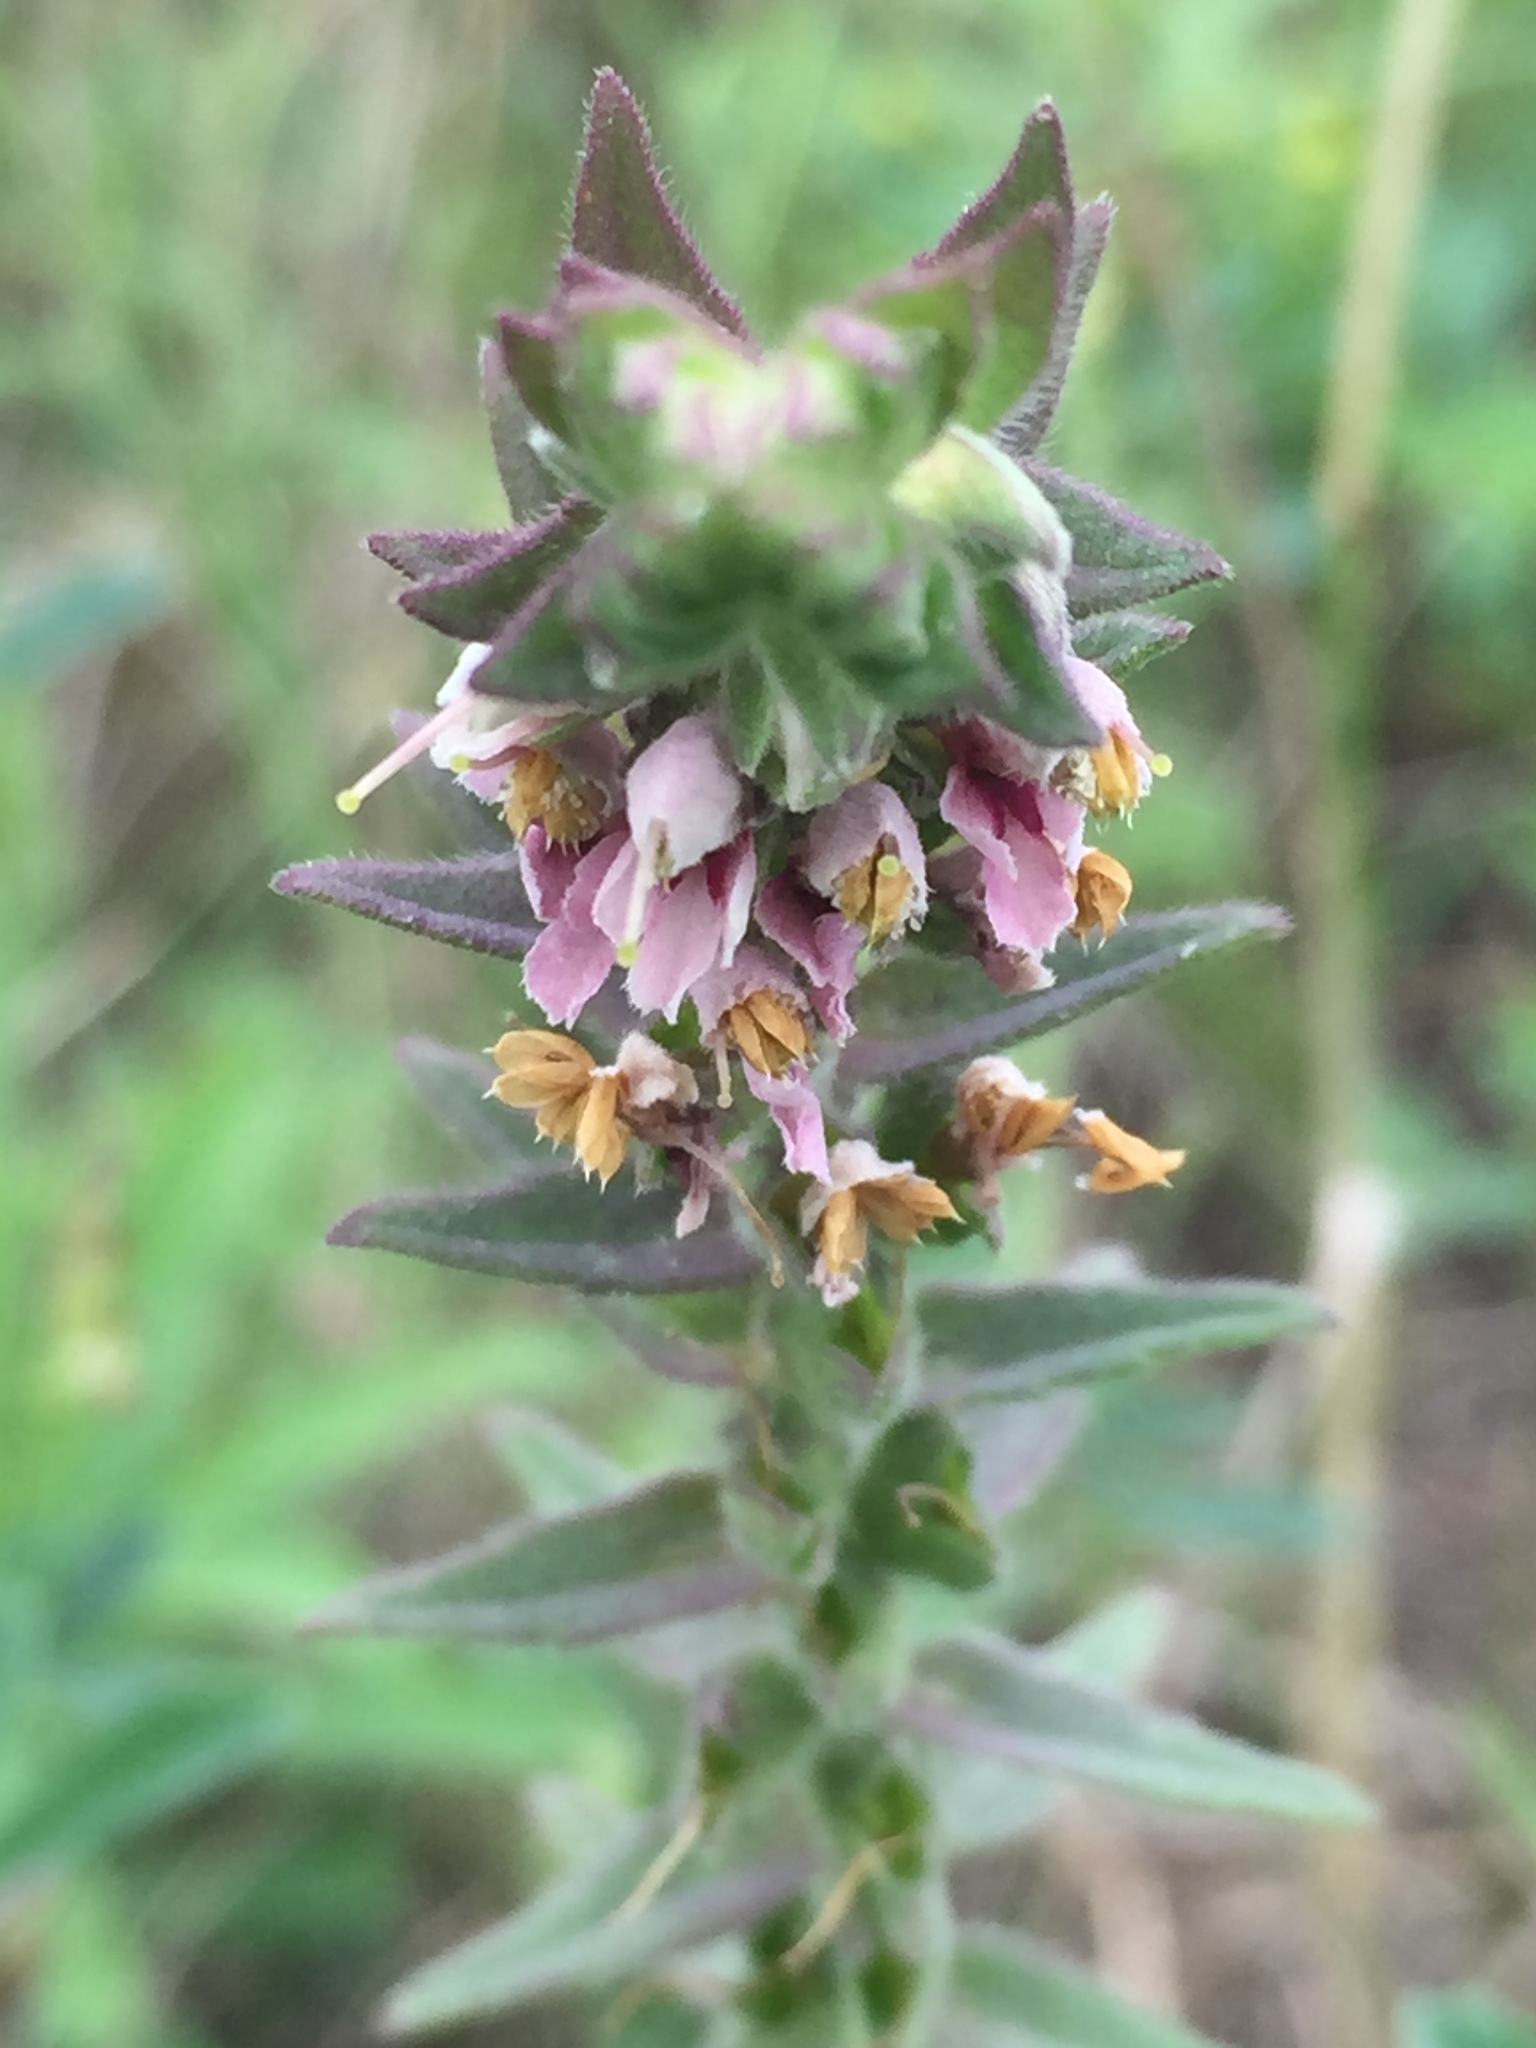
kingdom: Plantae
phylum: Tracheophyta
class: Magnoliopsida
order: Lamiales
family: Orobanchaceae
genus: Odontites
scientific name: Odontites vulgaris
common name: Broomrape
